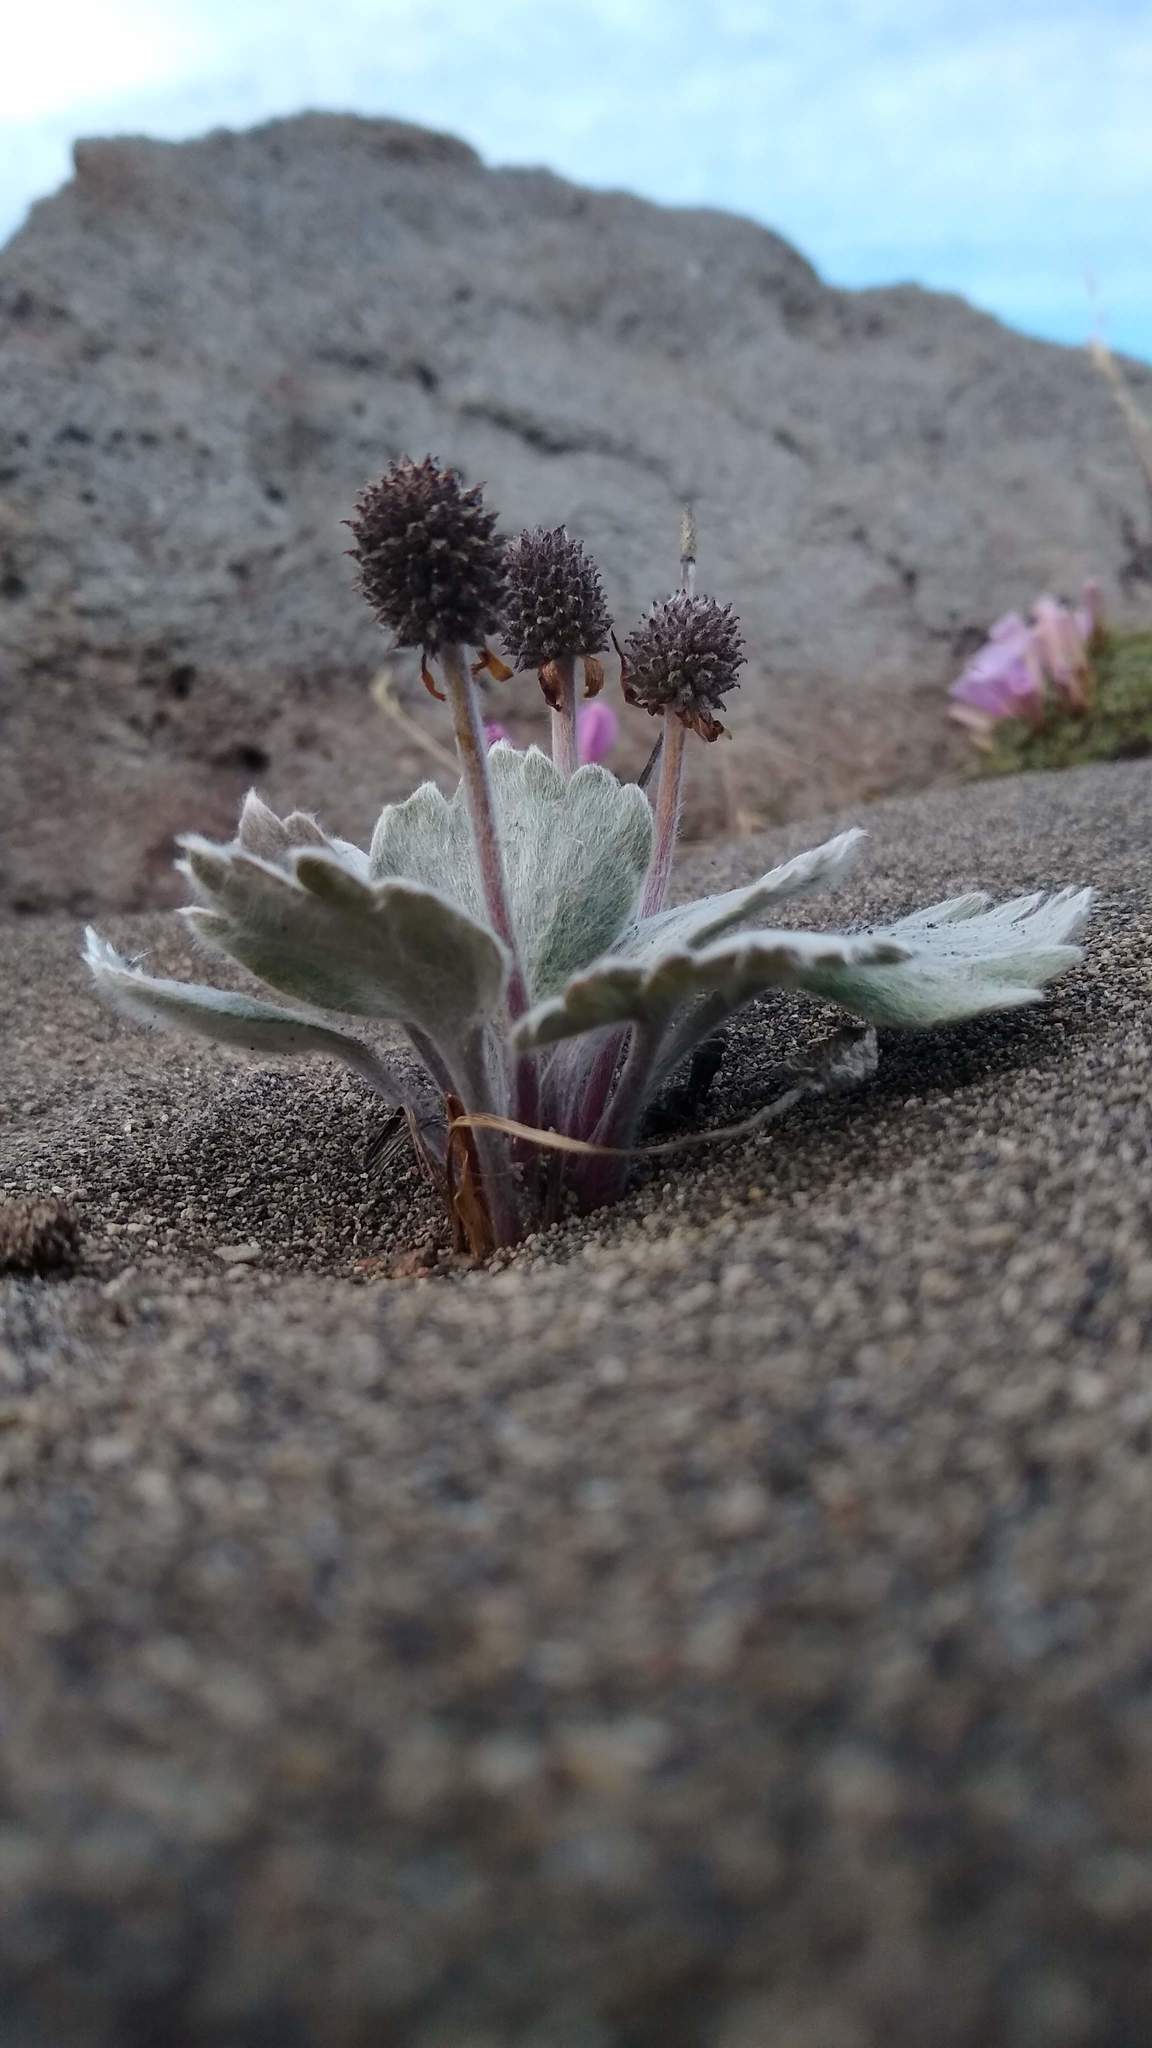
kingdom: Plantae
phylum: Tracheophyta
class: Magnoliopsida
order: Ranunculales
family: Ranunculaceae
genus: Hamadryas
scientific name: Hamadryas kingii
